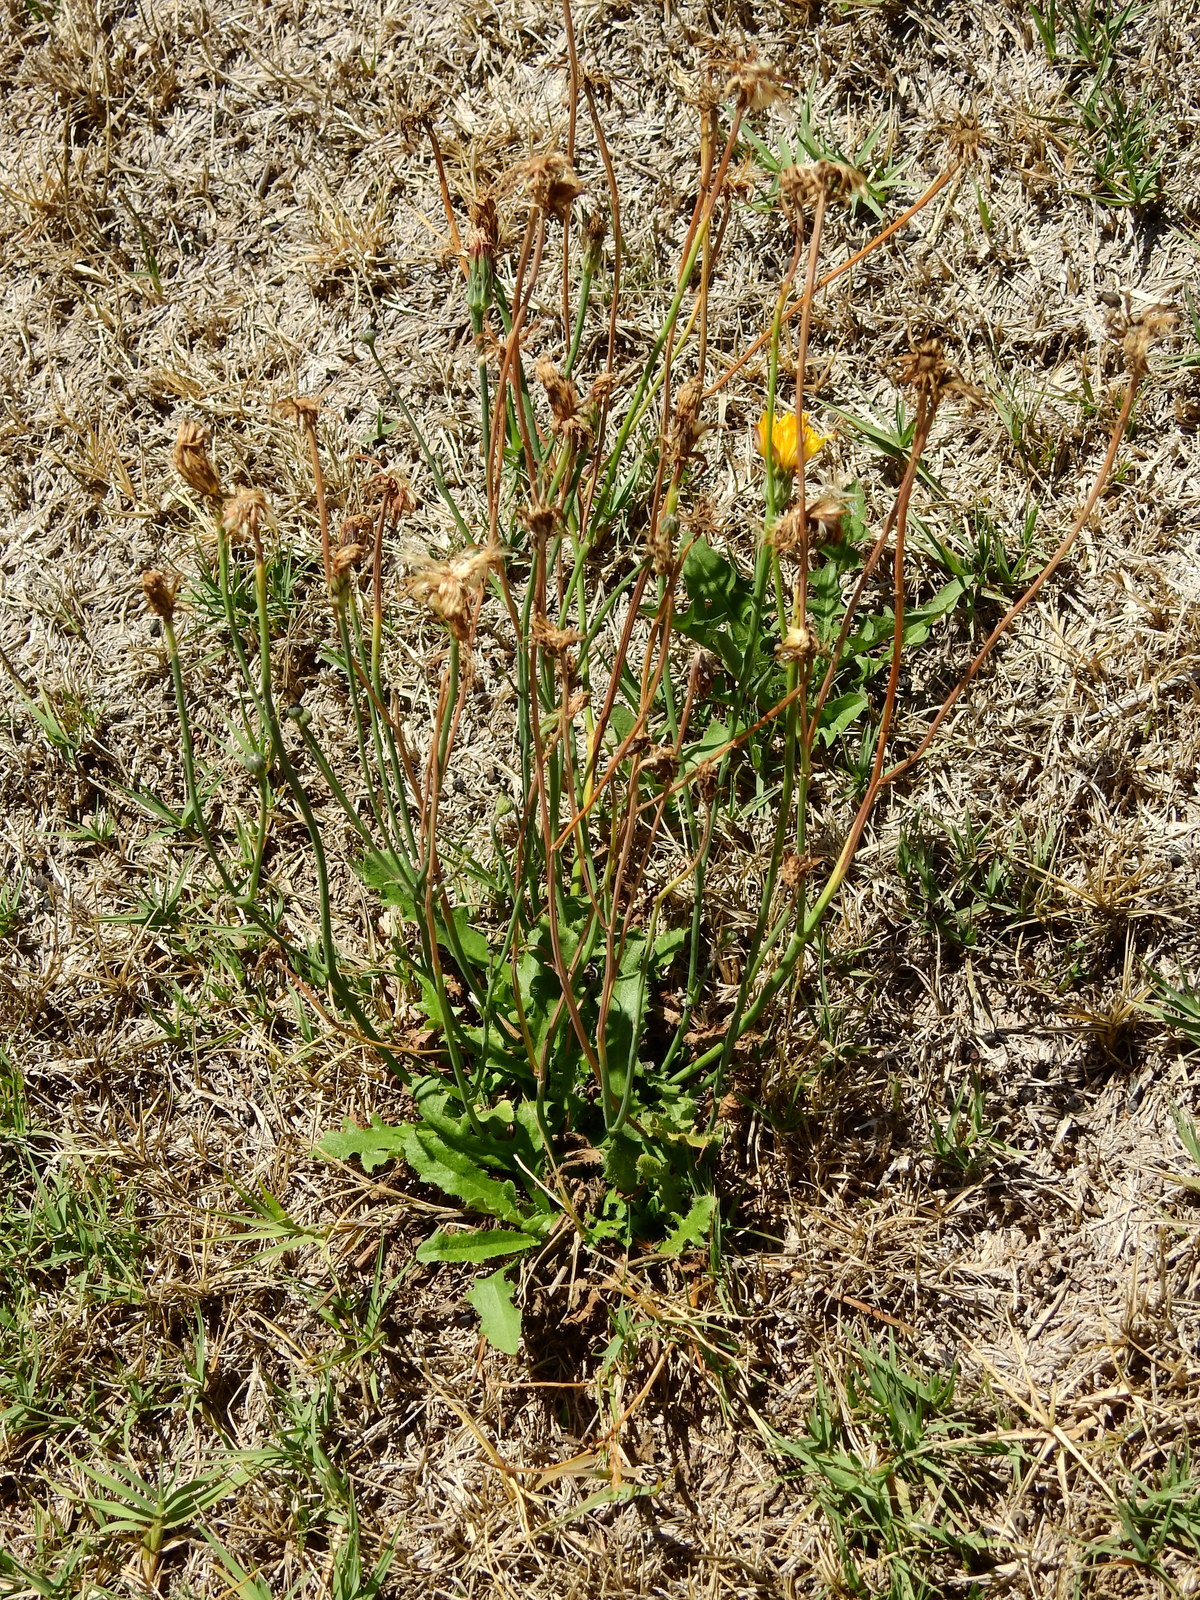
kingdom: Plantae
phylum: Tracheophyta
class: Magnoliopsida
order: Asterales
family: Asteraceae
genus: Hypochaeris
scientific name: Hypochaeris radicata
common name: Flatweed
